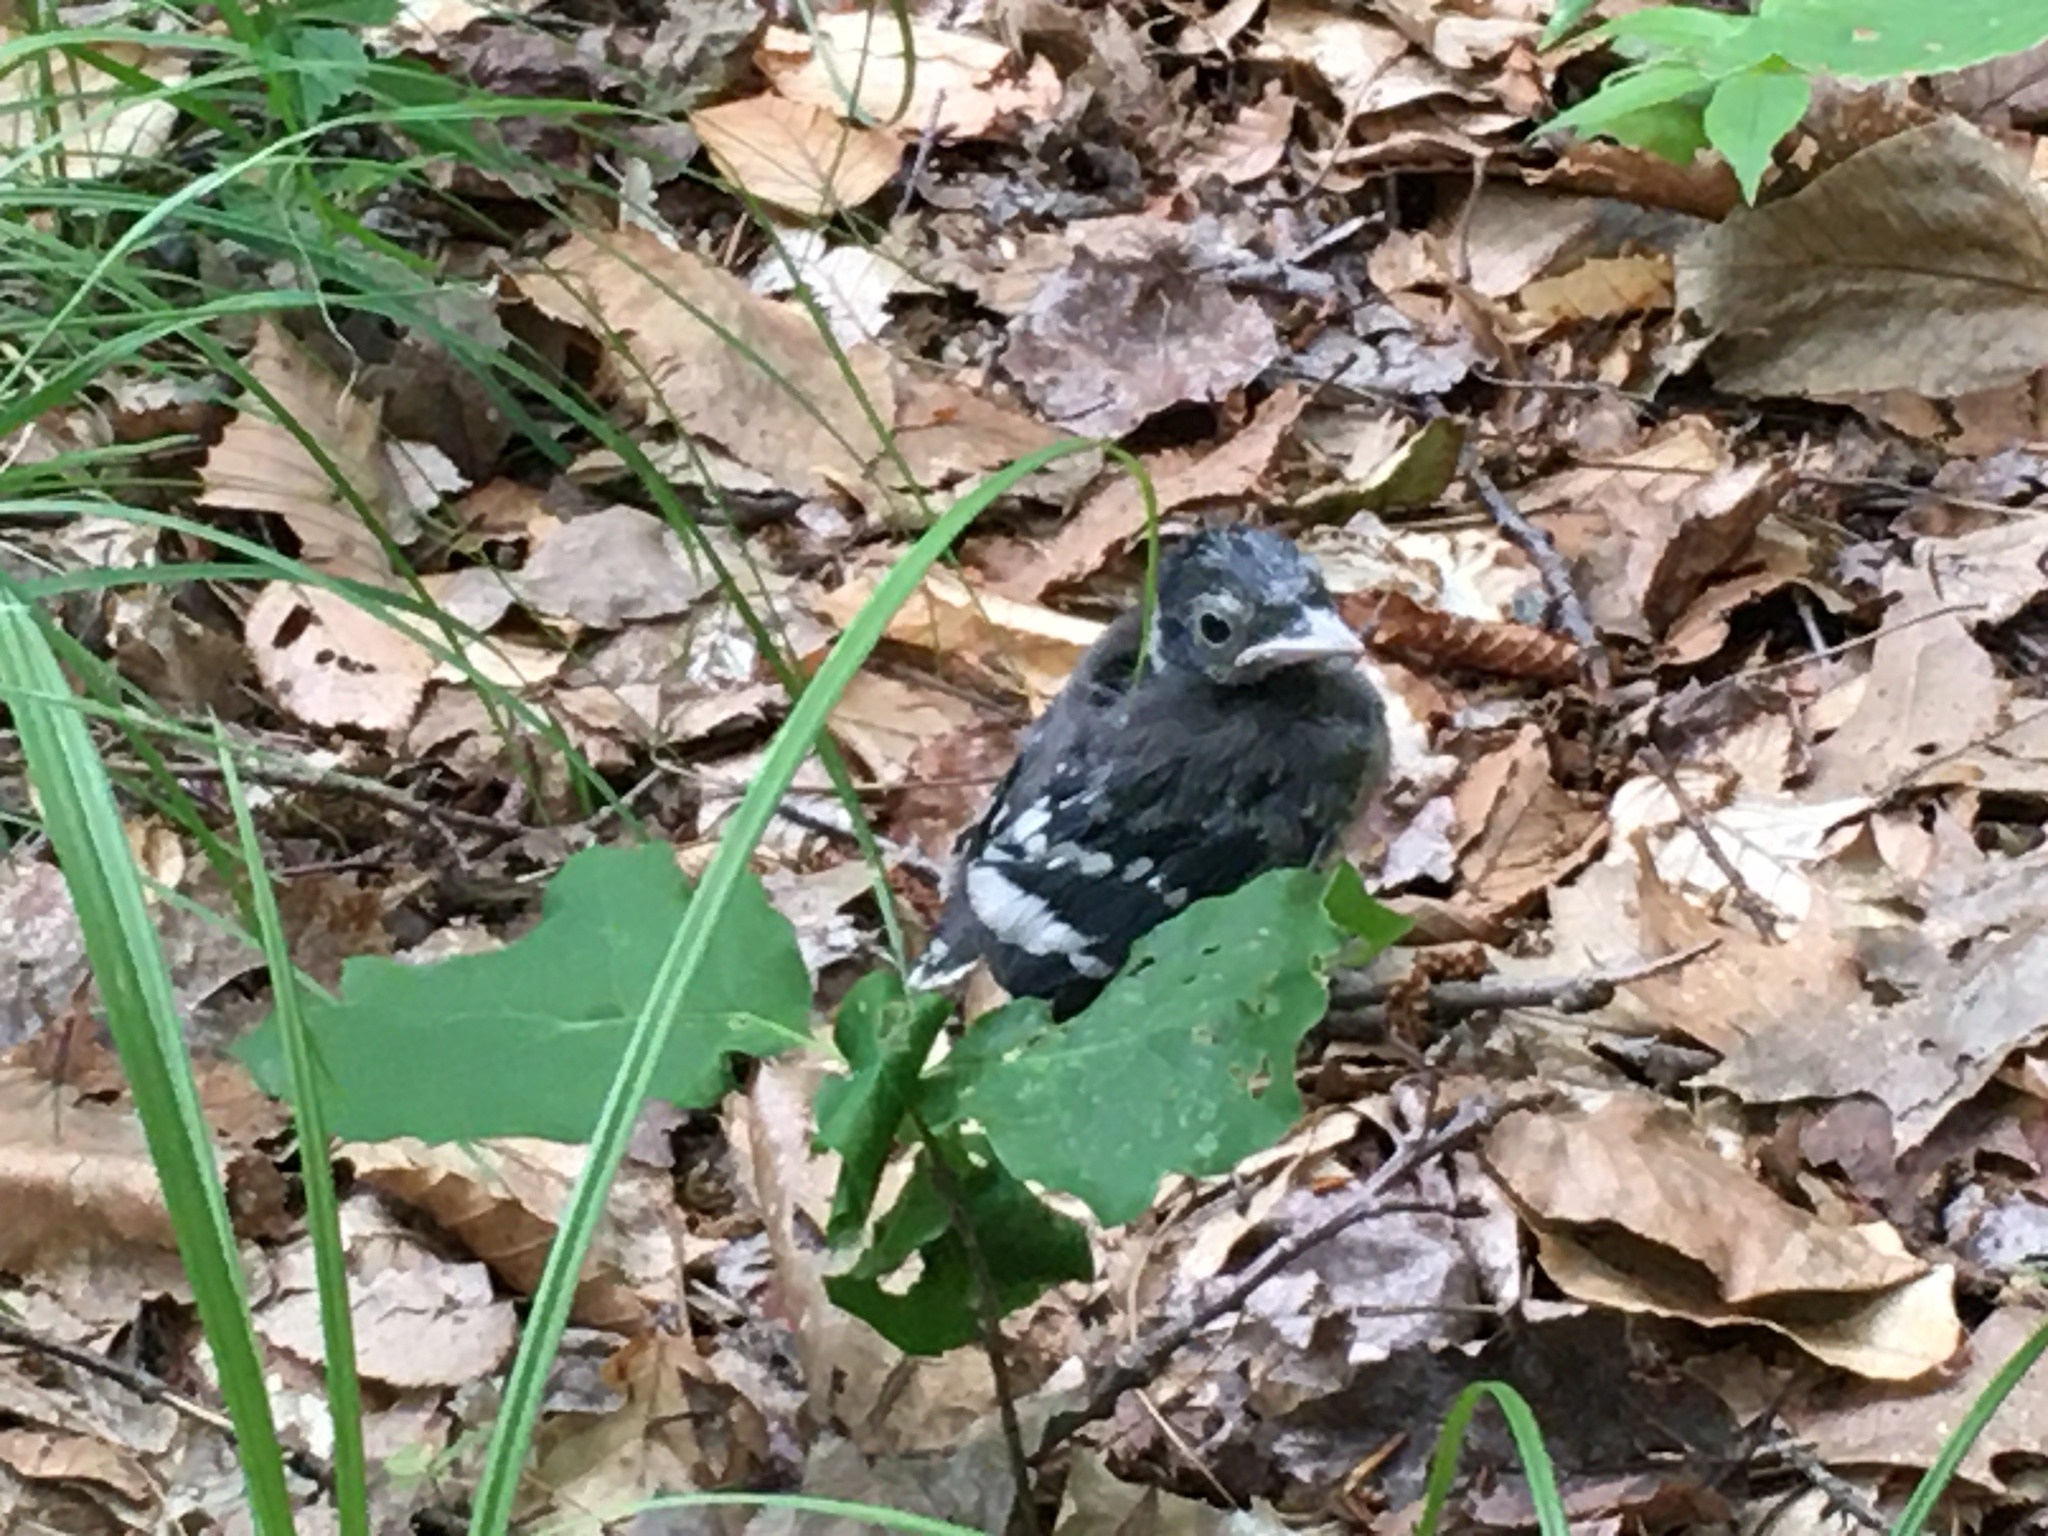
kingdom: Animalia
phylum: Chordata
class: Aves
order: Passeriformes
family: Corvidae
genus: Cyanocitta
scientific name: Cyanocitta cristata
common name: Blue jay
